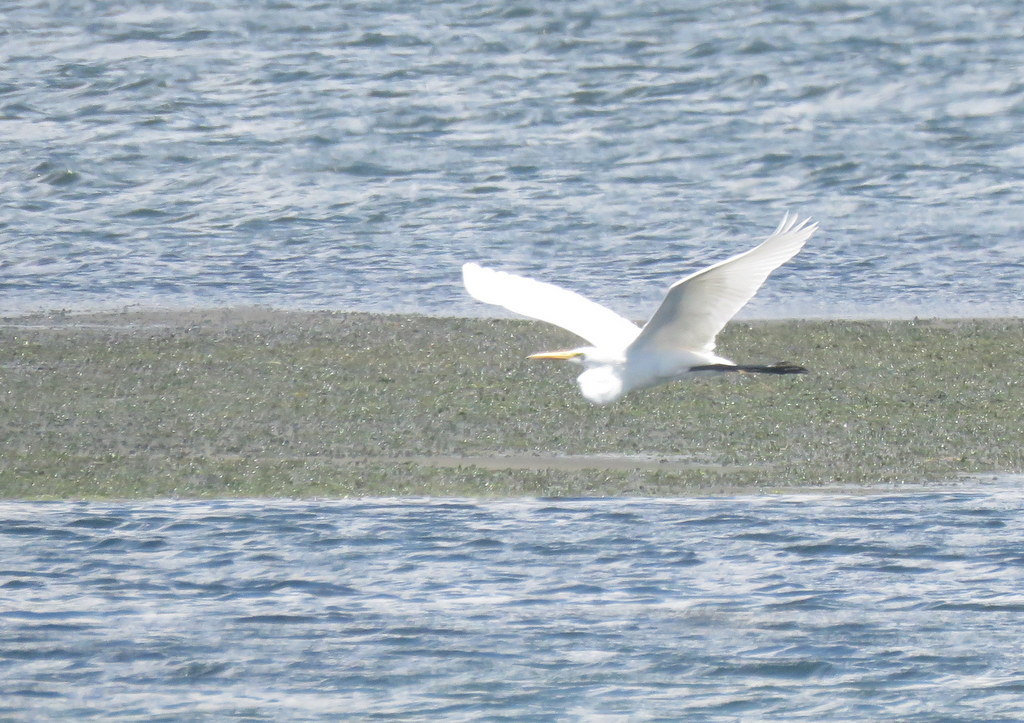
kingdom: Animalia
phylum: Chordata
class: Aves
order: Pelecaniformes
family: Ardeidae
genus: Ardea
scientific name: Ardea alba
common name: Great egret
